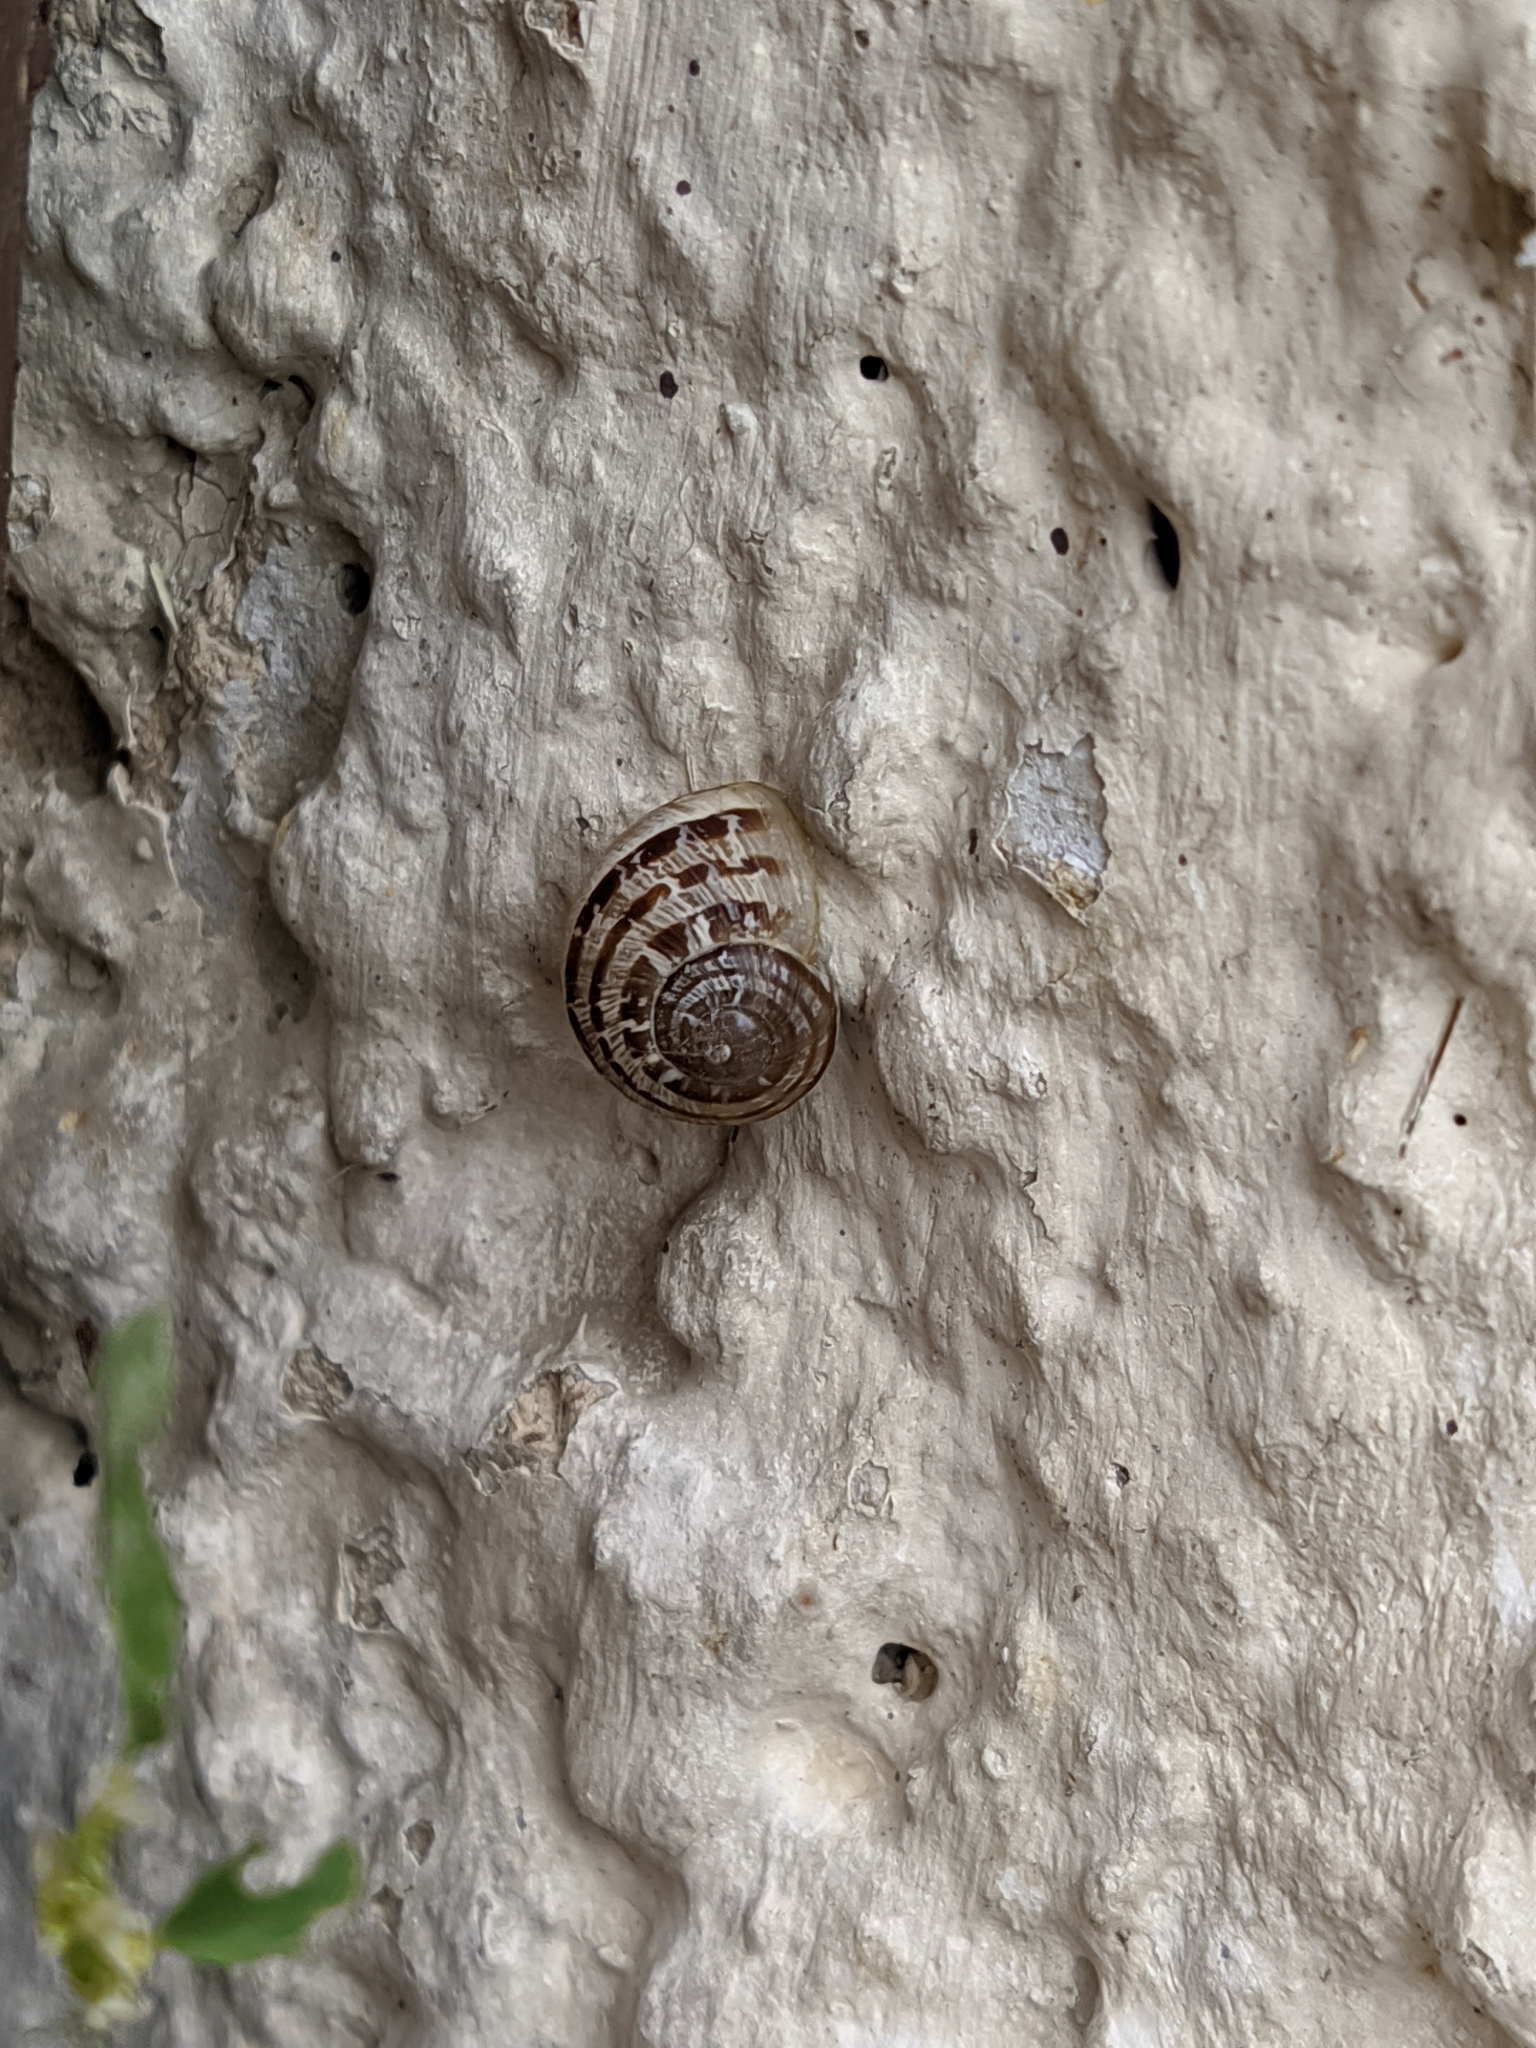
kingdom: Animalia
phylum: Mollusca
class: Gastropoda
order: Stylommatophora
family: Helicidae
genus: Cornu
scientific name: Cornu aspersum
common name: Brown garden snail
